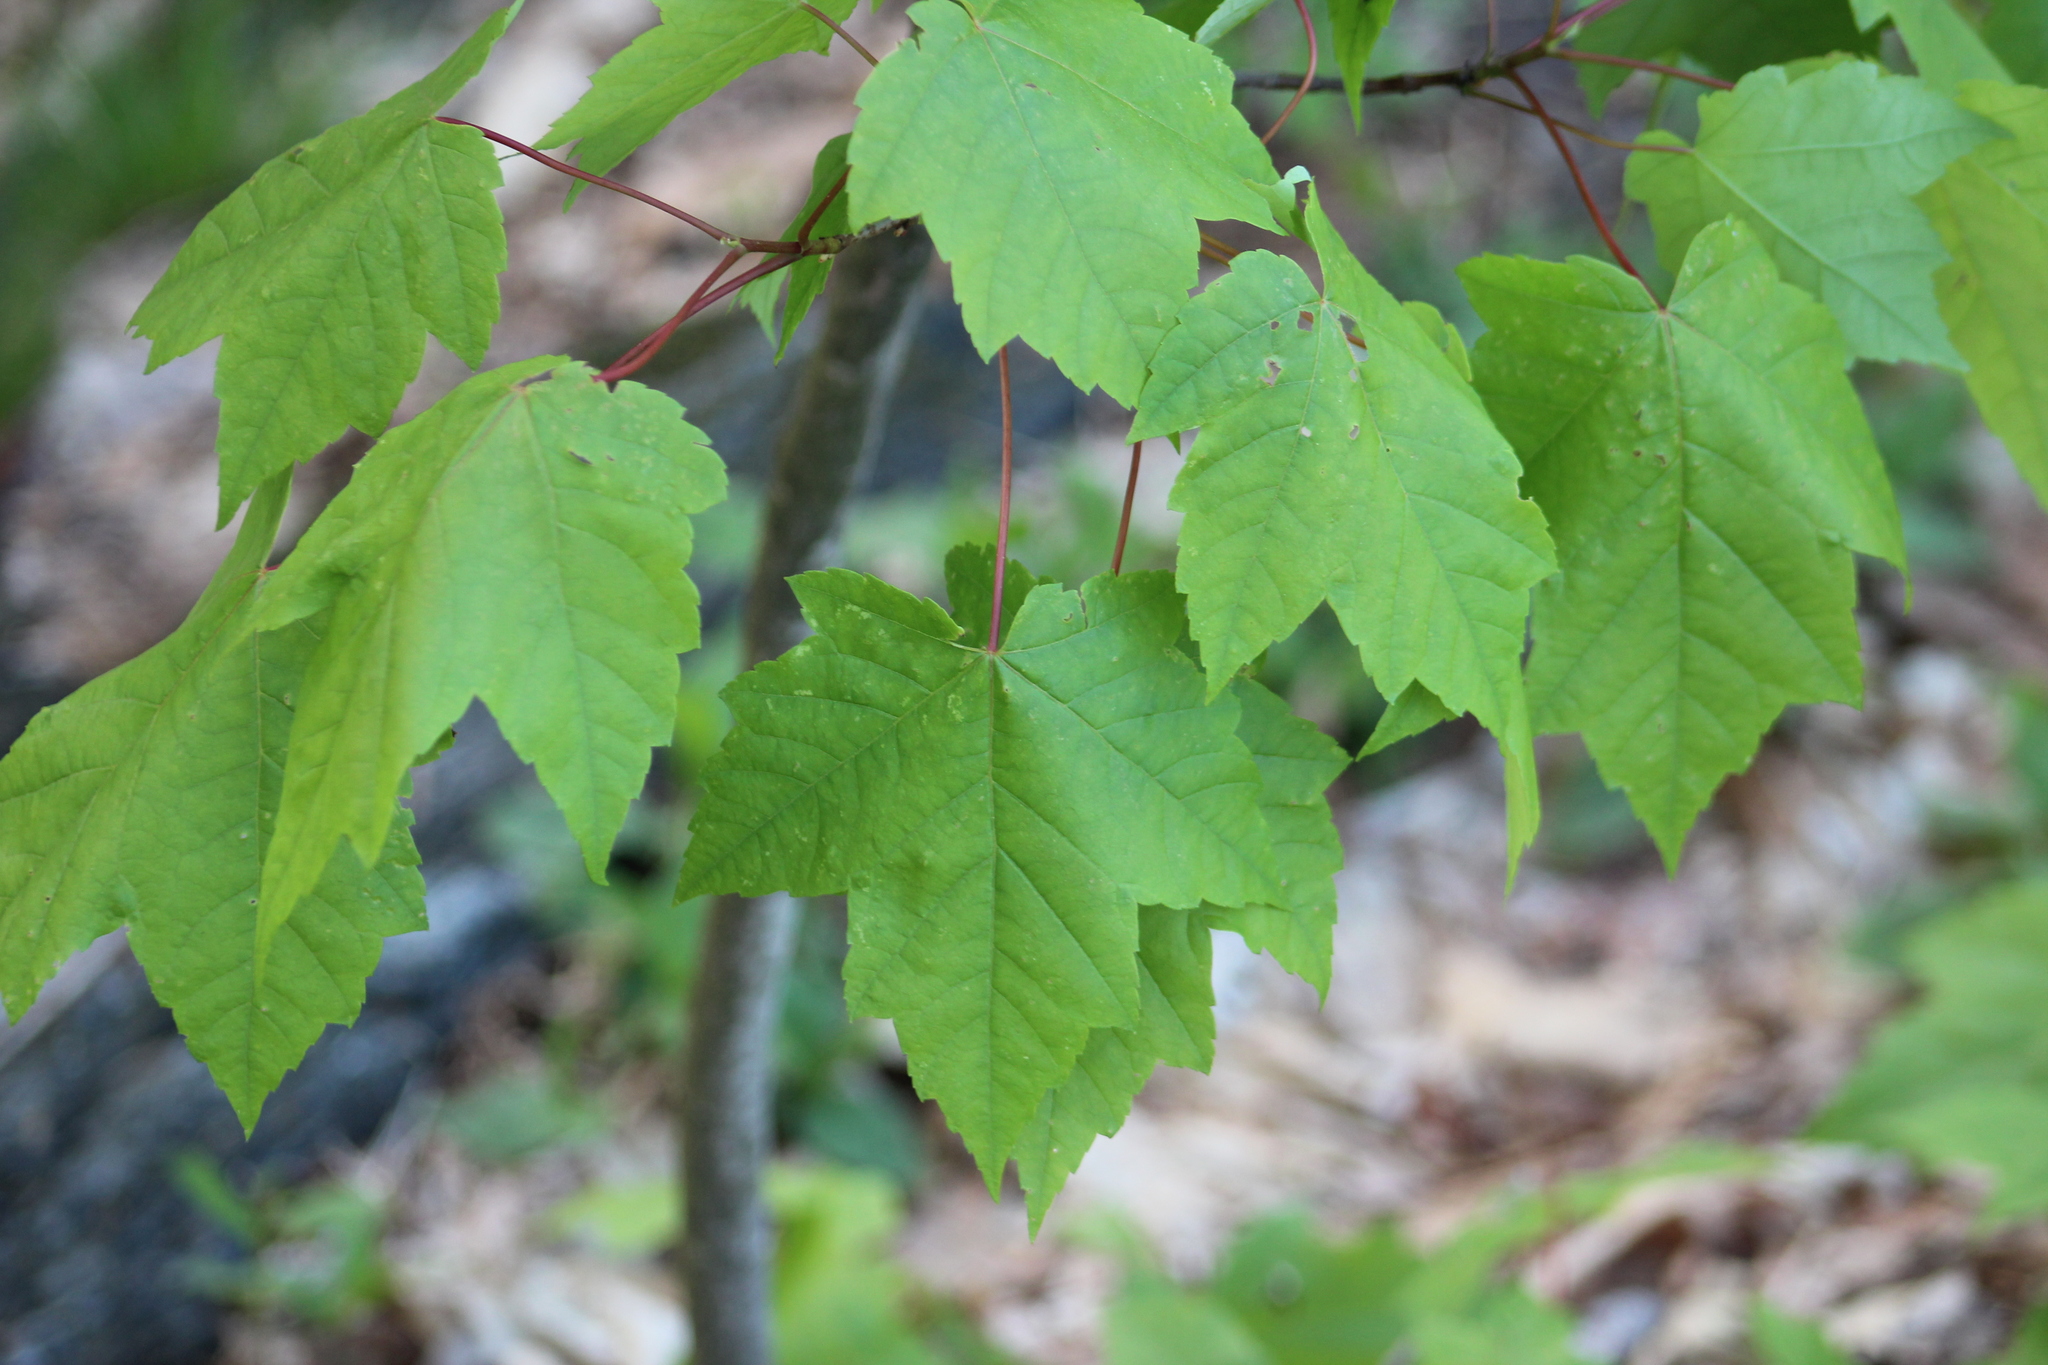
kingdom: Plantae
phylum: Tracheophyta
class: Magnoliopsida
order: Sapindales
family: Sapindaceae
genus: Acer
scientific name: Acer rubrum
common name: Red maple
